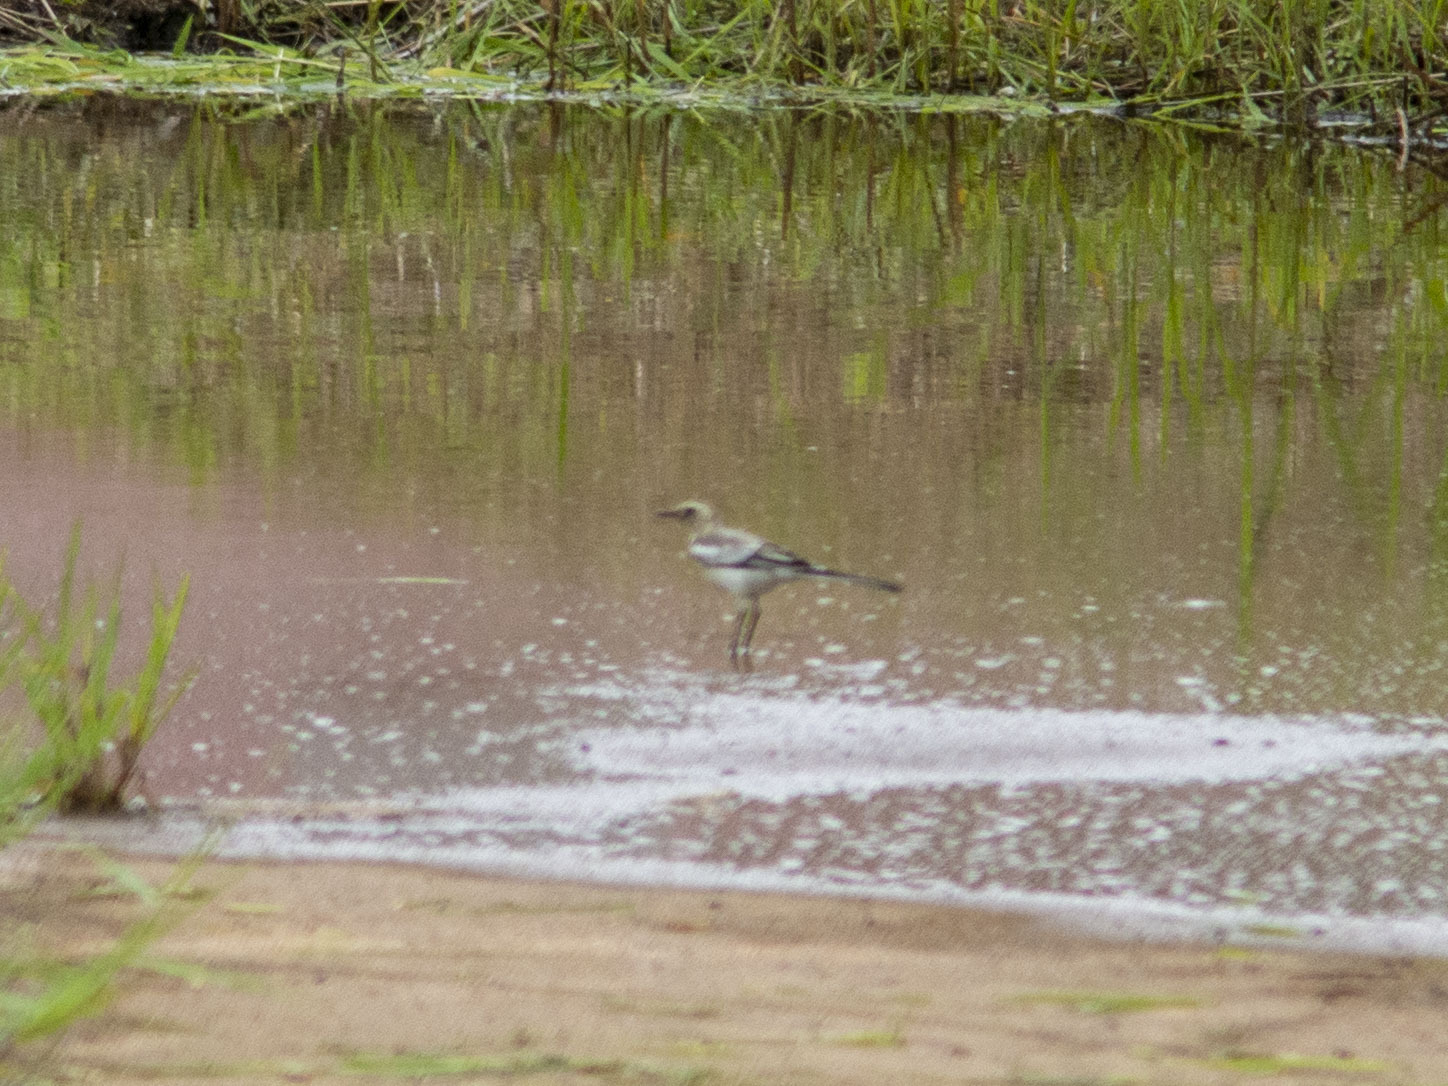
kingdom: Animalia
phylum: Chordata
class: Aves
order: Passeriformes
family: Motacillidae
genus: Motacilla
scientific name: Motacilla alba
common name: White wagtail
